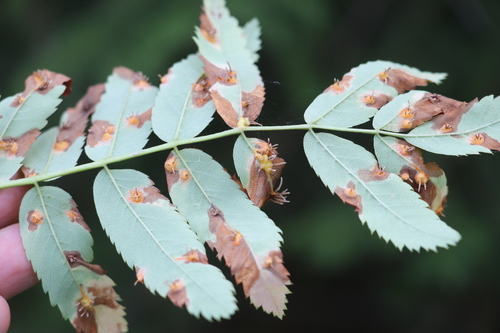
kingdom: Fungi
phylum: Basidiomycota
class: Pucciniomycetes
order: Pucciniales
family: Gymnosporangiaceae
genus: Gymnosporangium
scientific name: Gymnosporangium
